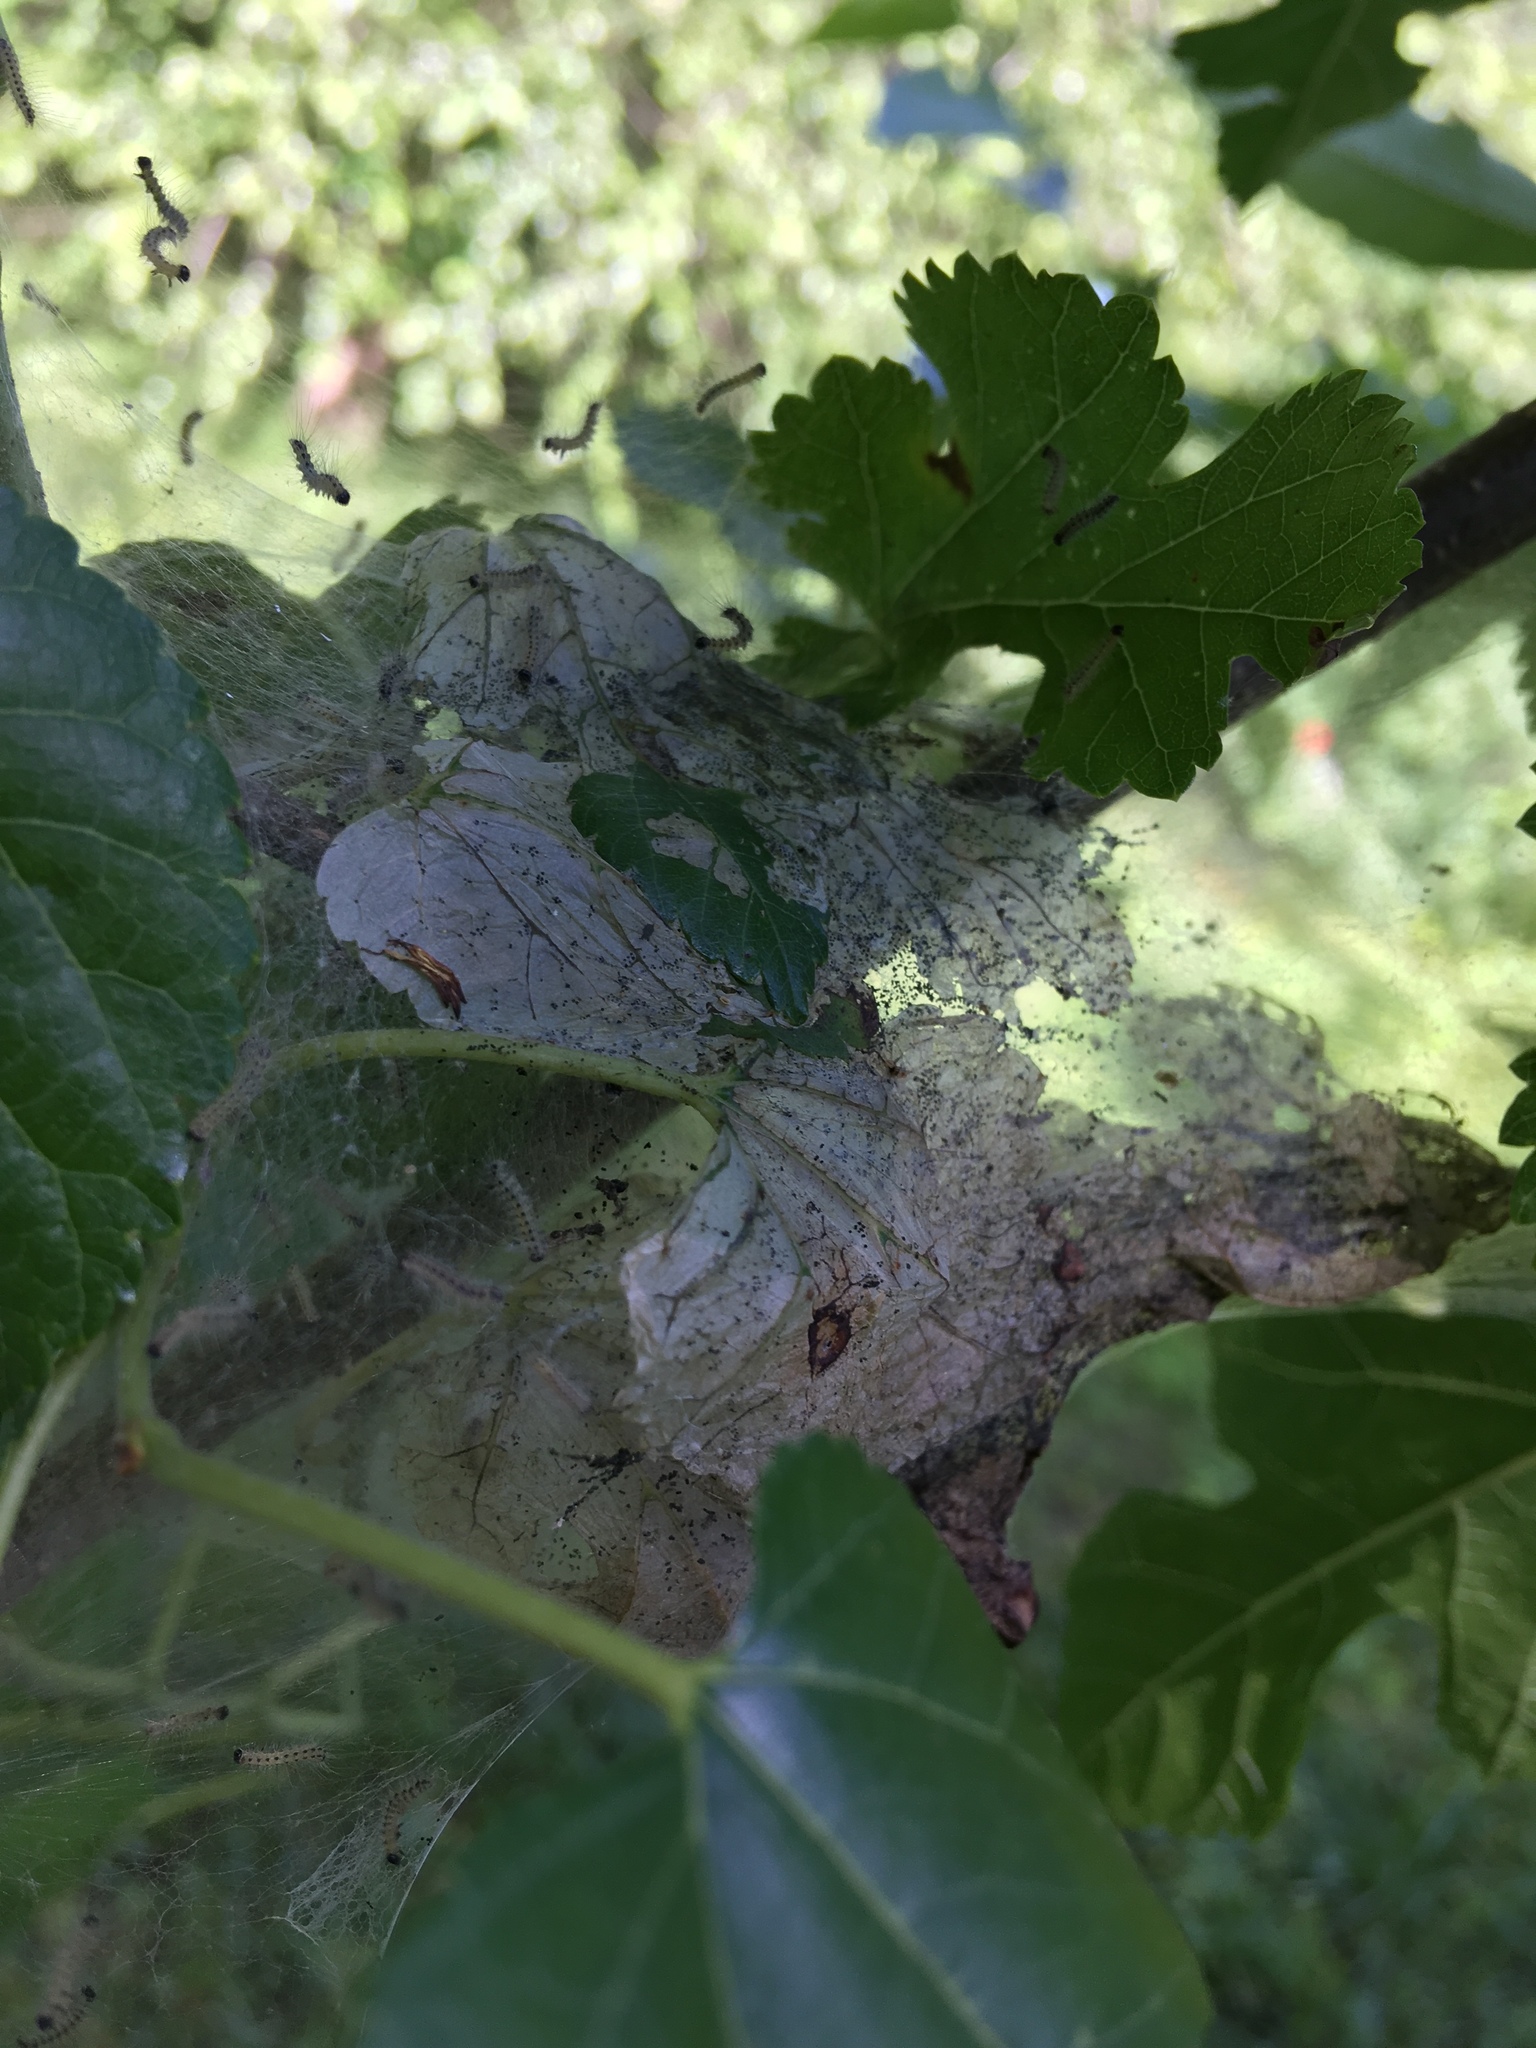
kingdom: Animalia
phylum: Arthropoda
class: Insecta
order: Lepidoptera
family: Erebidae
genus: Hyphantria
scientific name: Hyphantria cunea
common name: American white moth
